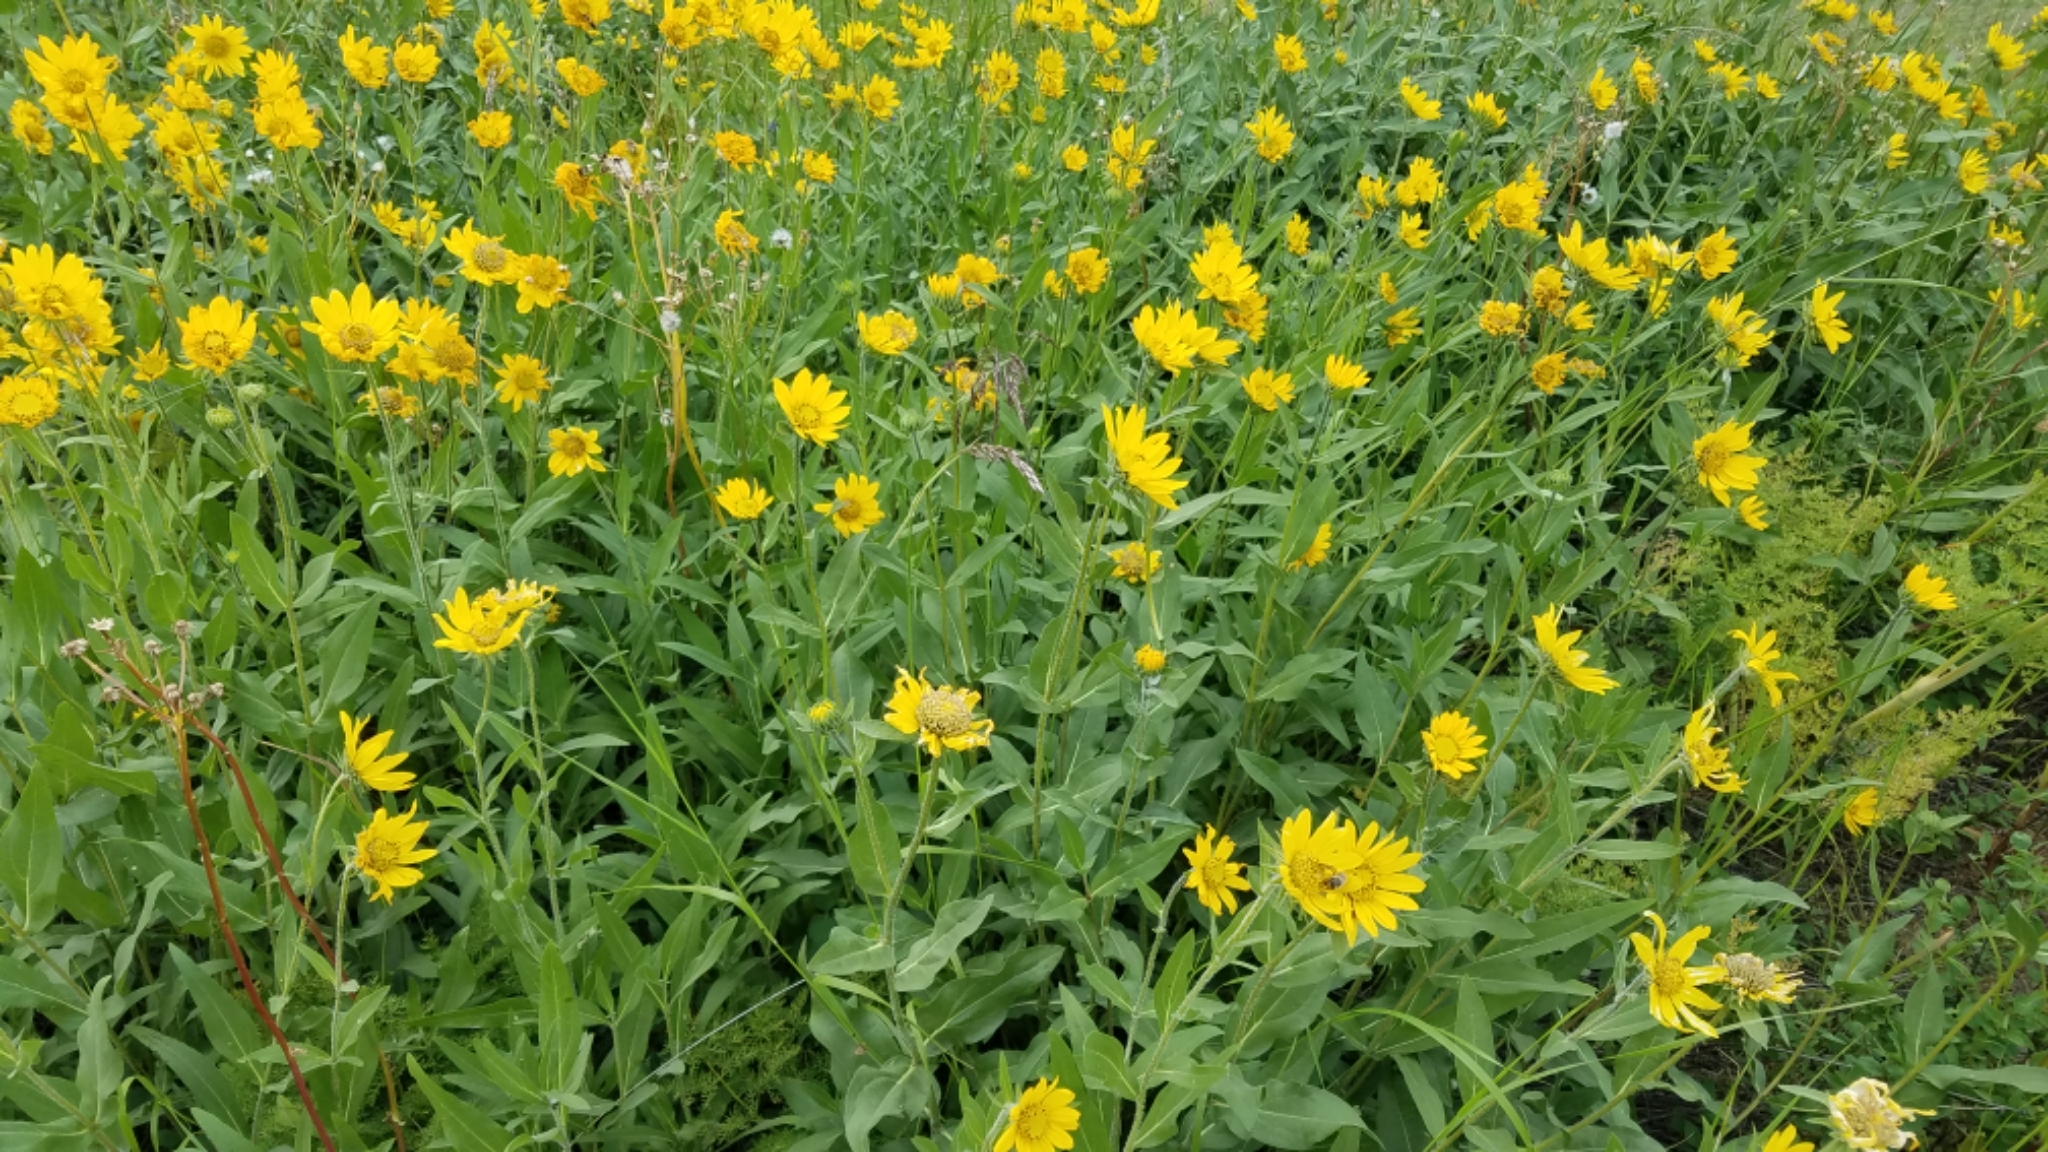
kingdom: Plantae
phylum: Tracheophyta
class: Magnoliopsida
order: Asterales
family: Asteraceae
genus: Helianthella
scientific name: Helianthella uniflora
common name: Rocky mountain dwarf sunflower
